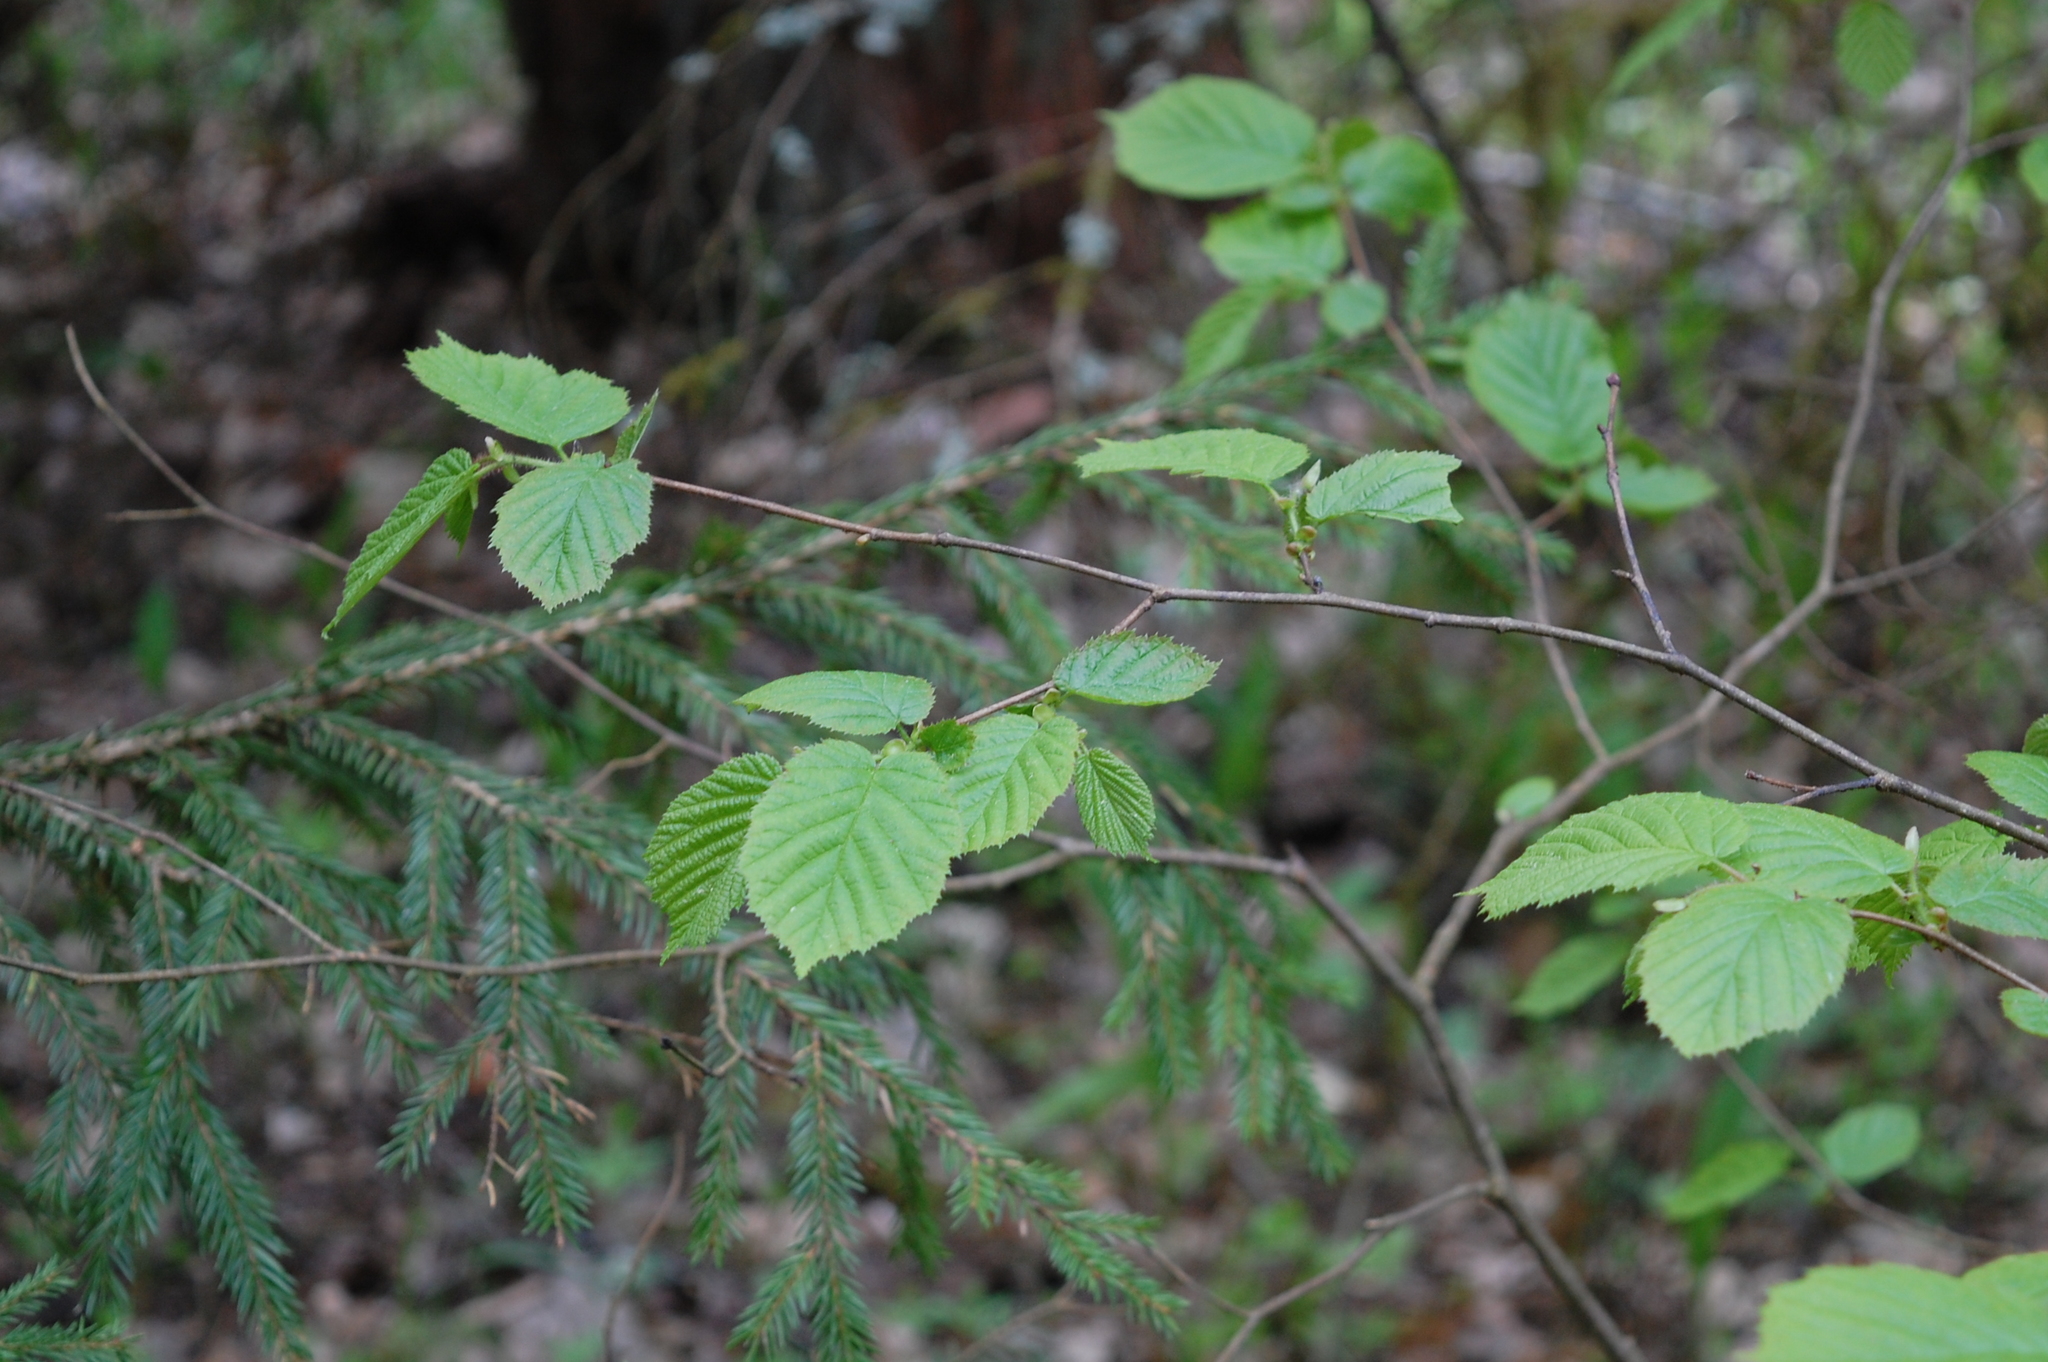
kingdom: Plantae
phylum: Tracheophyta
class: Magnoliopsida
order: Fagales
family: Betulaceae
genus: Corylus
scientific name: Corylus avellana
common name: European hazel
